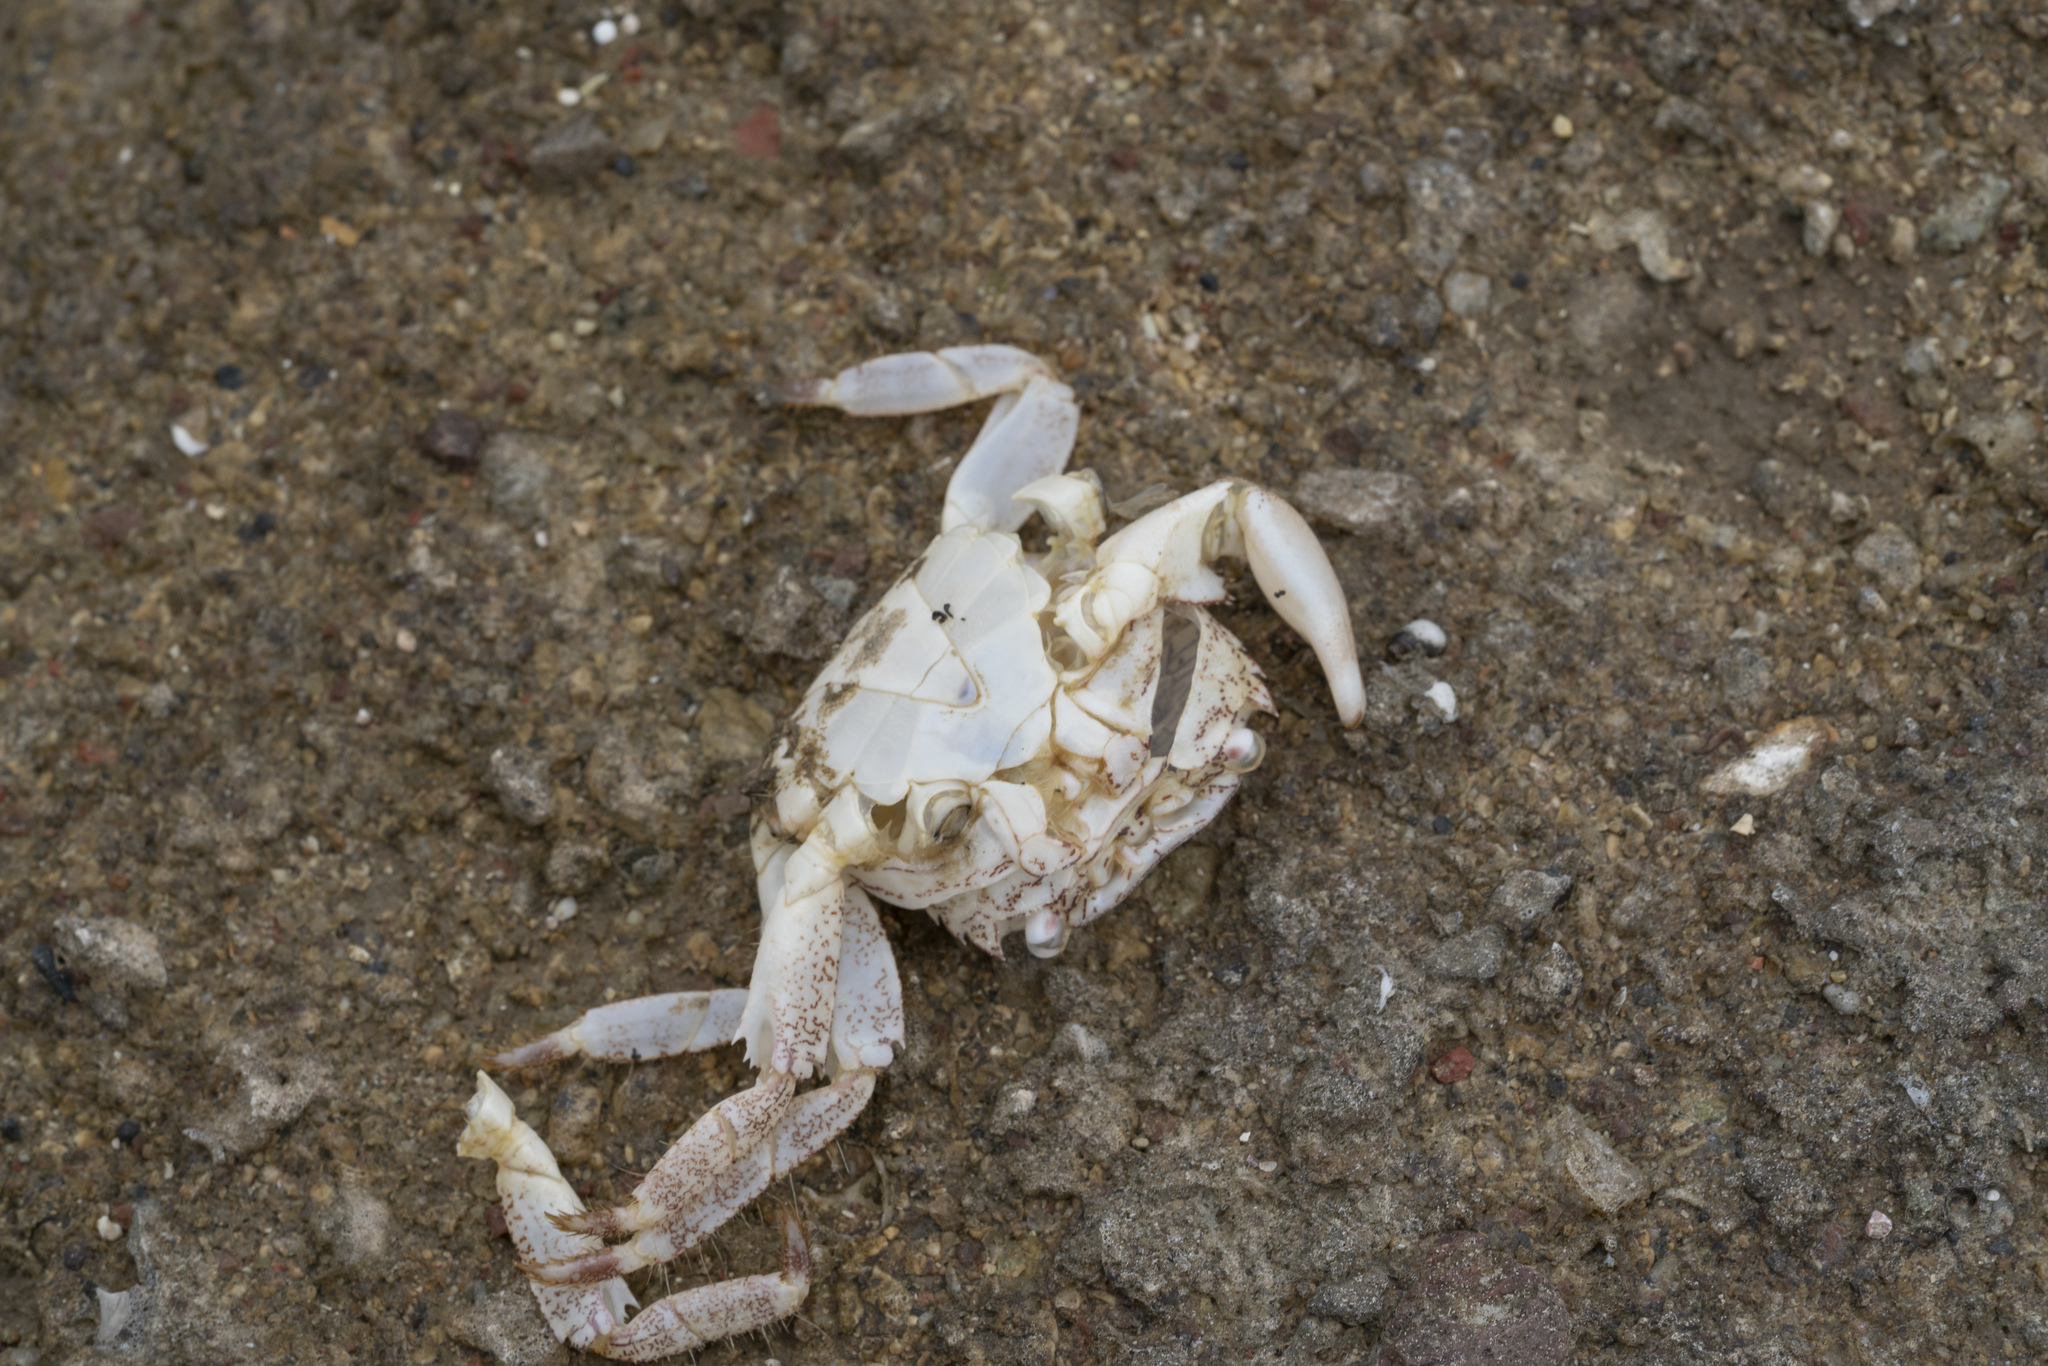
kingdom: Animalia
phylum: Arthropoda
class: Malacostraca
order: Decapoda
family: Grapsidae
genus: Pachygrapsus
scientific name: Pachygrapsus marmoratus
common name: Marbled rock crab
